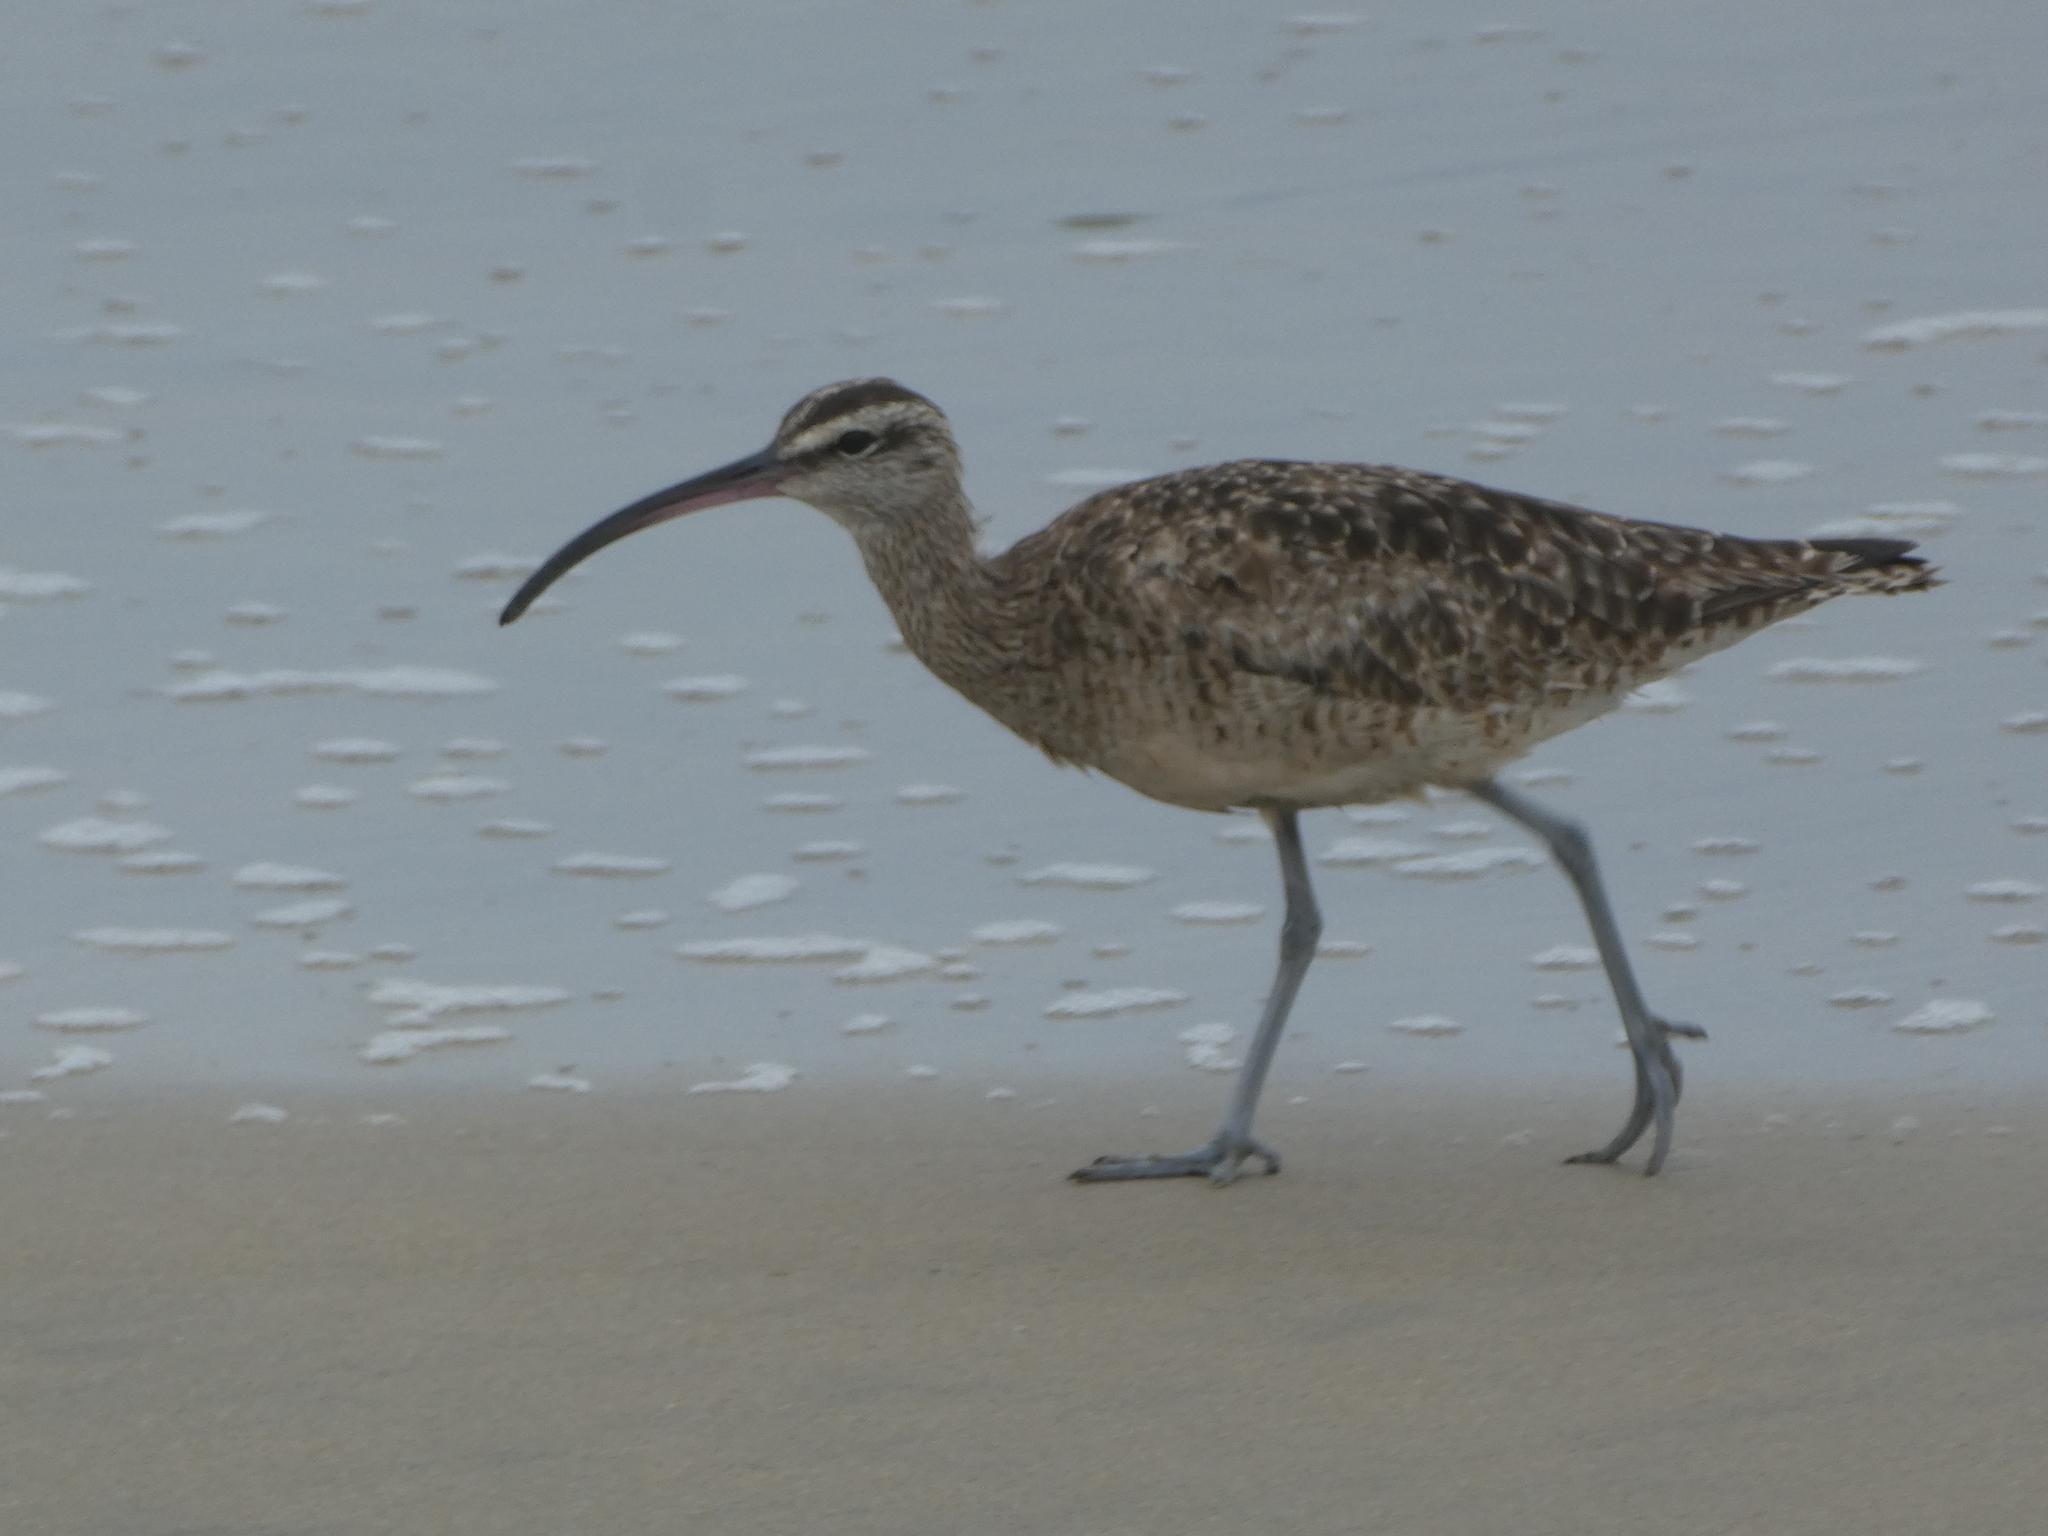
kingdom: Animalia
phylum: Chordata
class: Aves
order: Charadriiformes
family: Scolopacidae
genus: Numenius
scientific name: Numenius phaeopus
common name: Whimbrel
